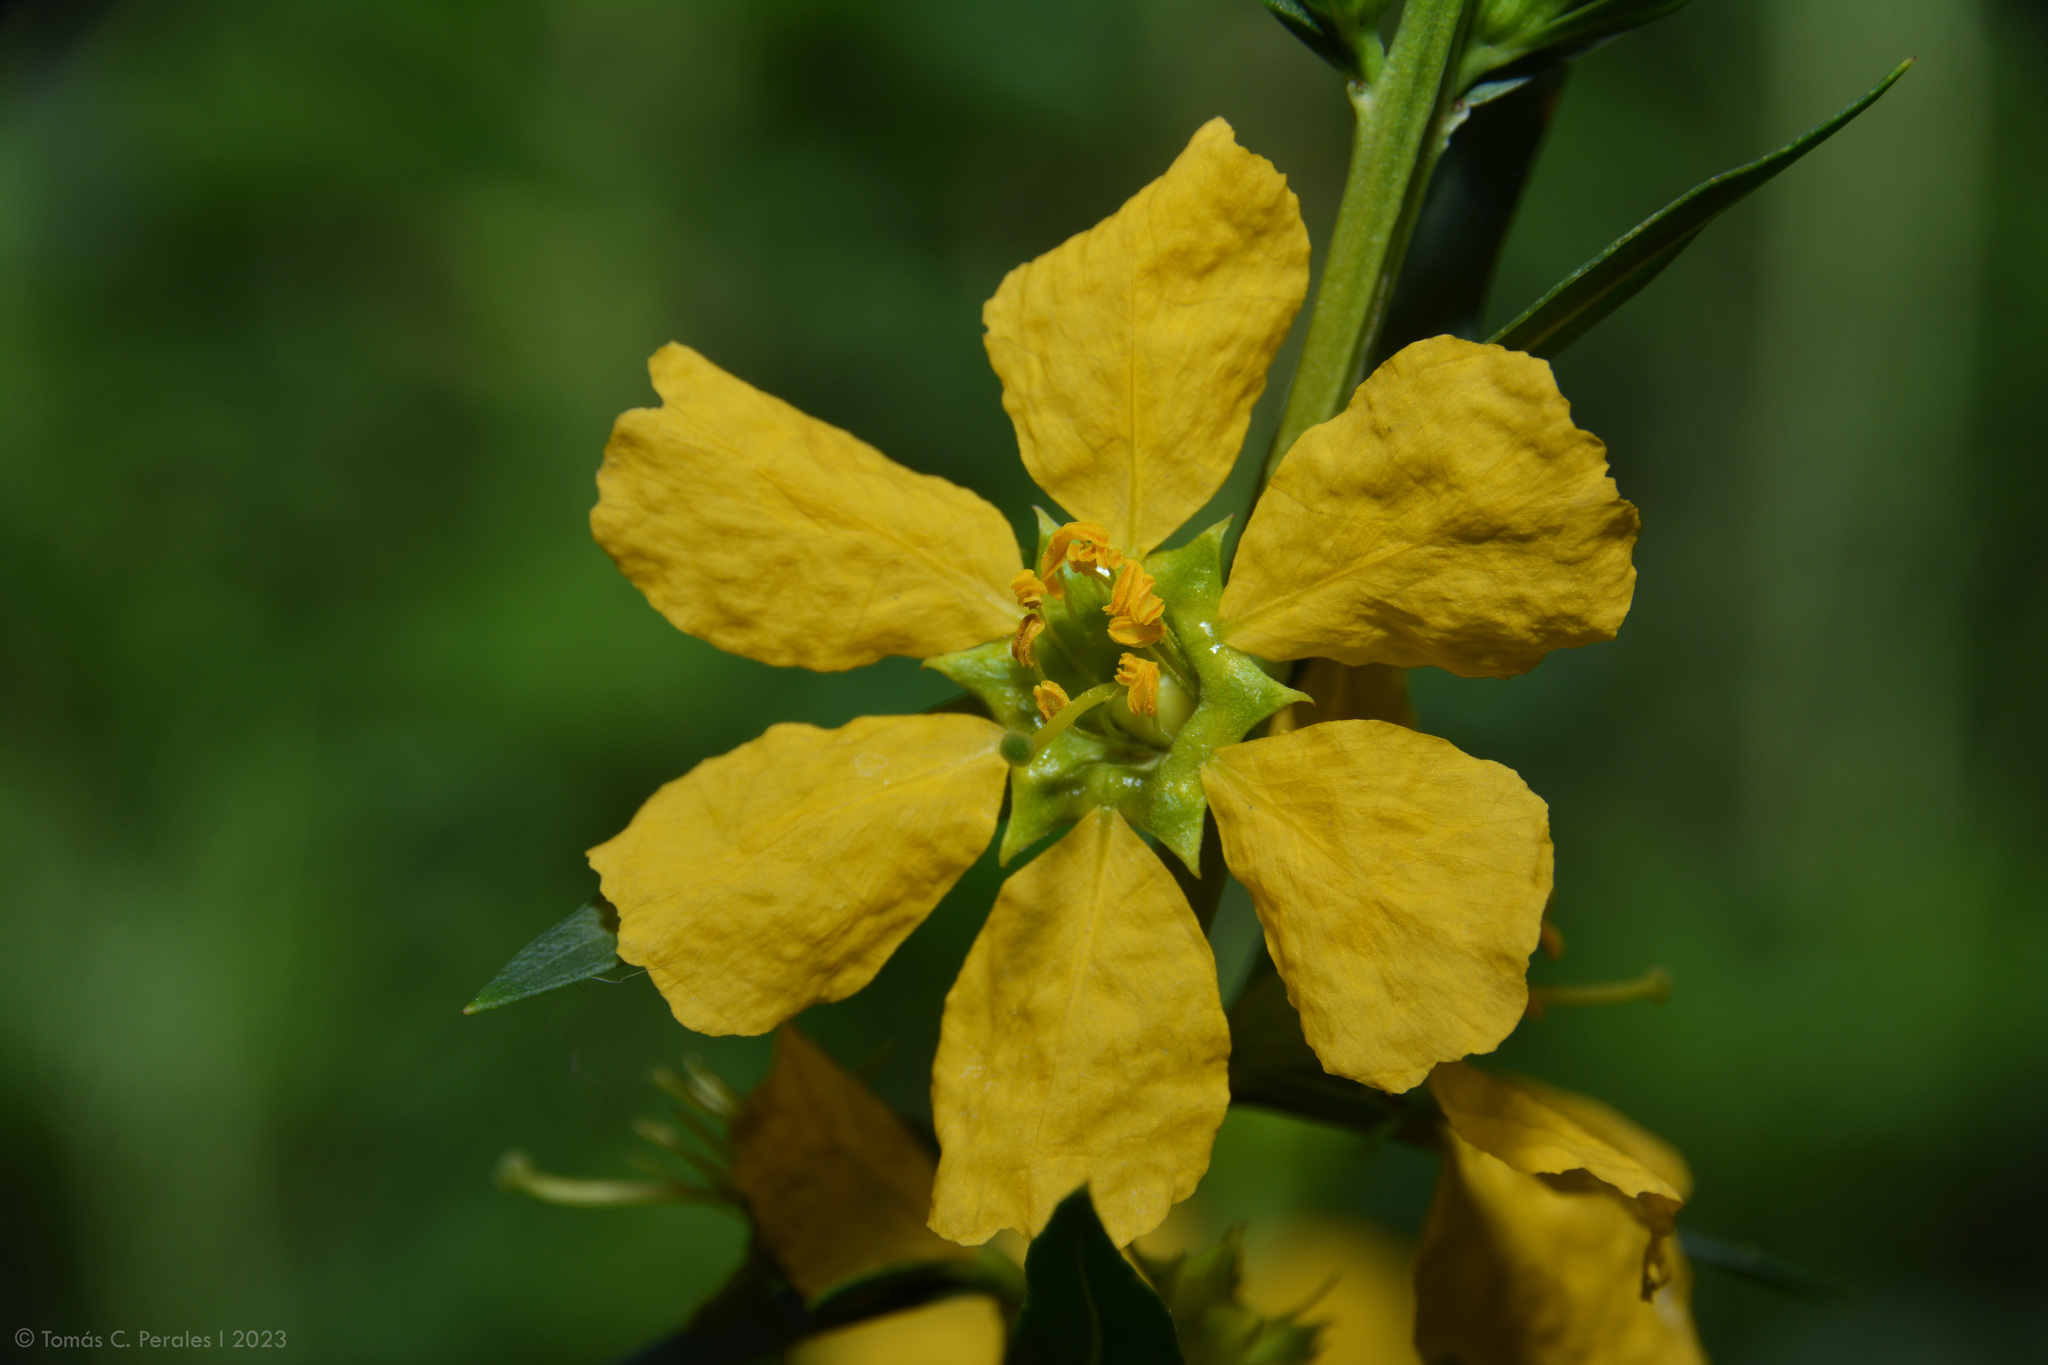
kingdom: Plantae
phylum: Tracheophyta
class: Magnoliopsida
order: Myrtales
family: Lythraceae
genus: Heimia
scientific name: Heimia salicifolia
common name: Willow-leaf heimia
